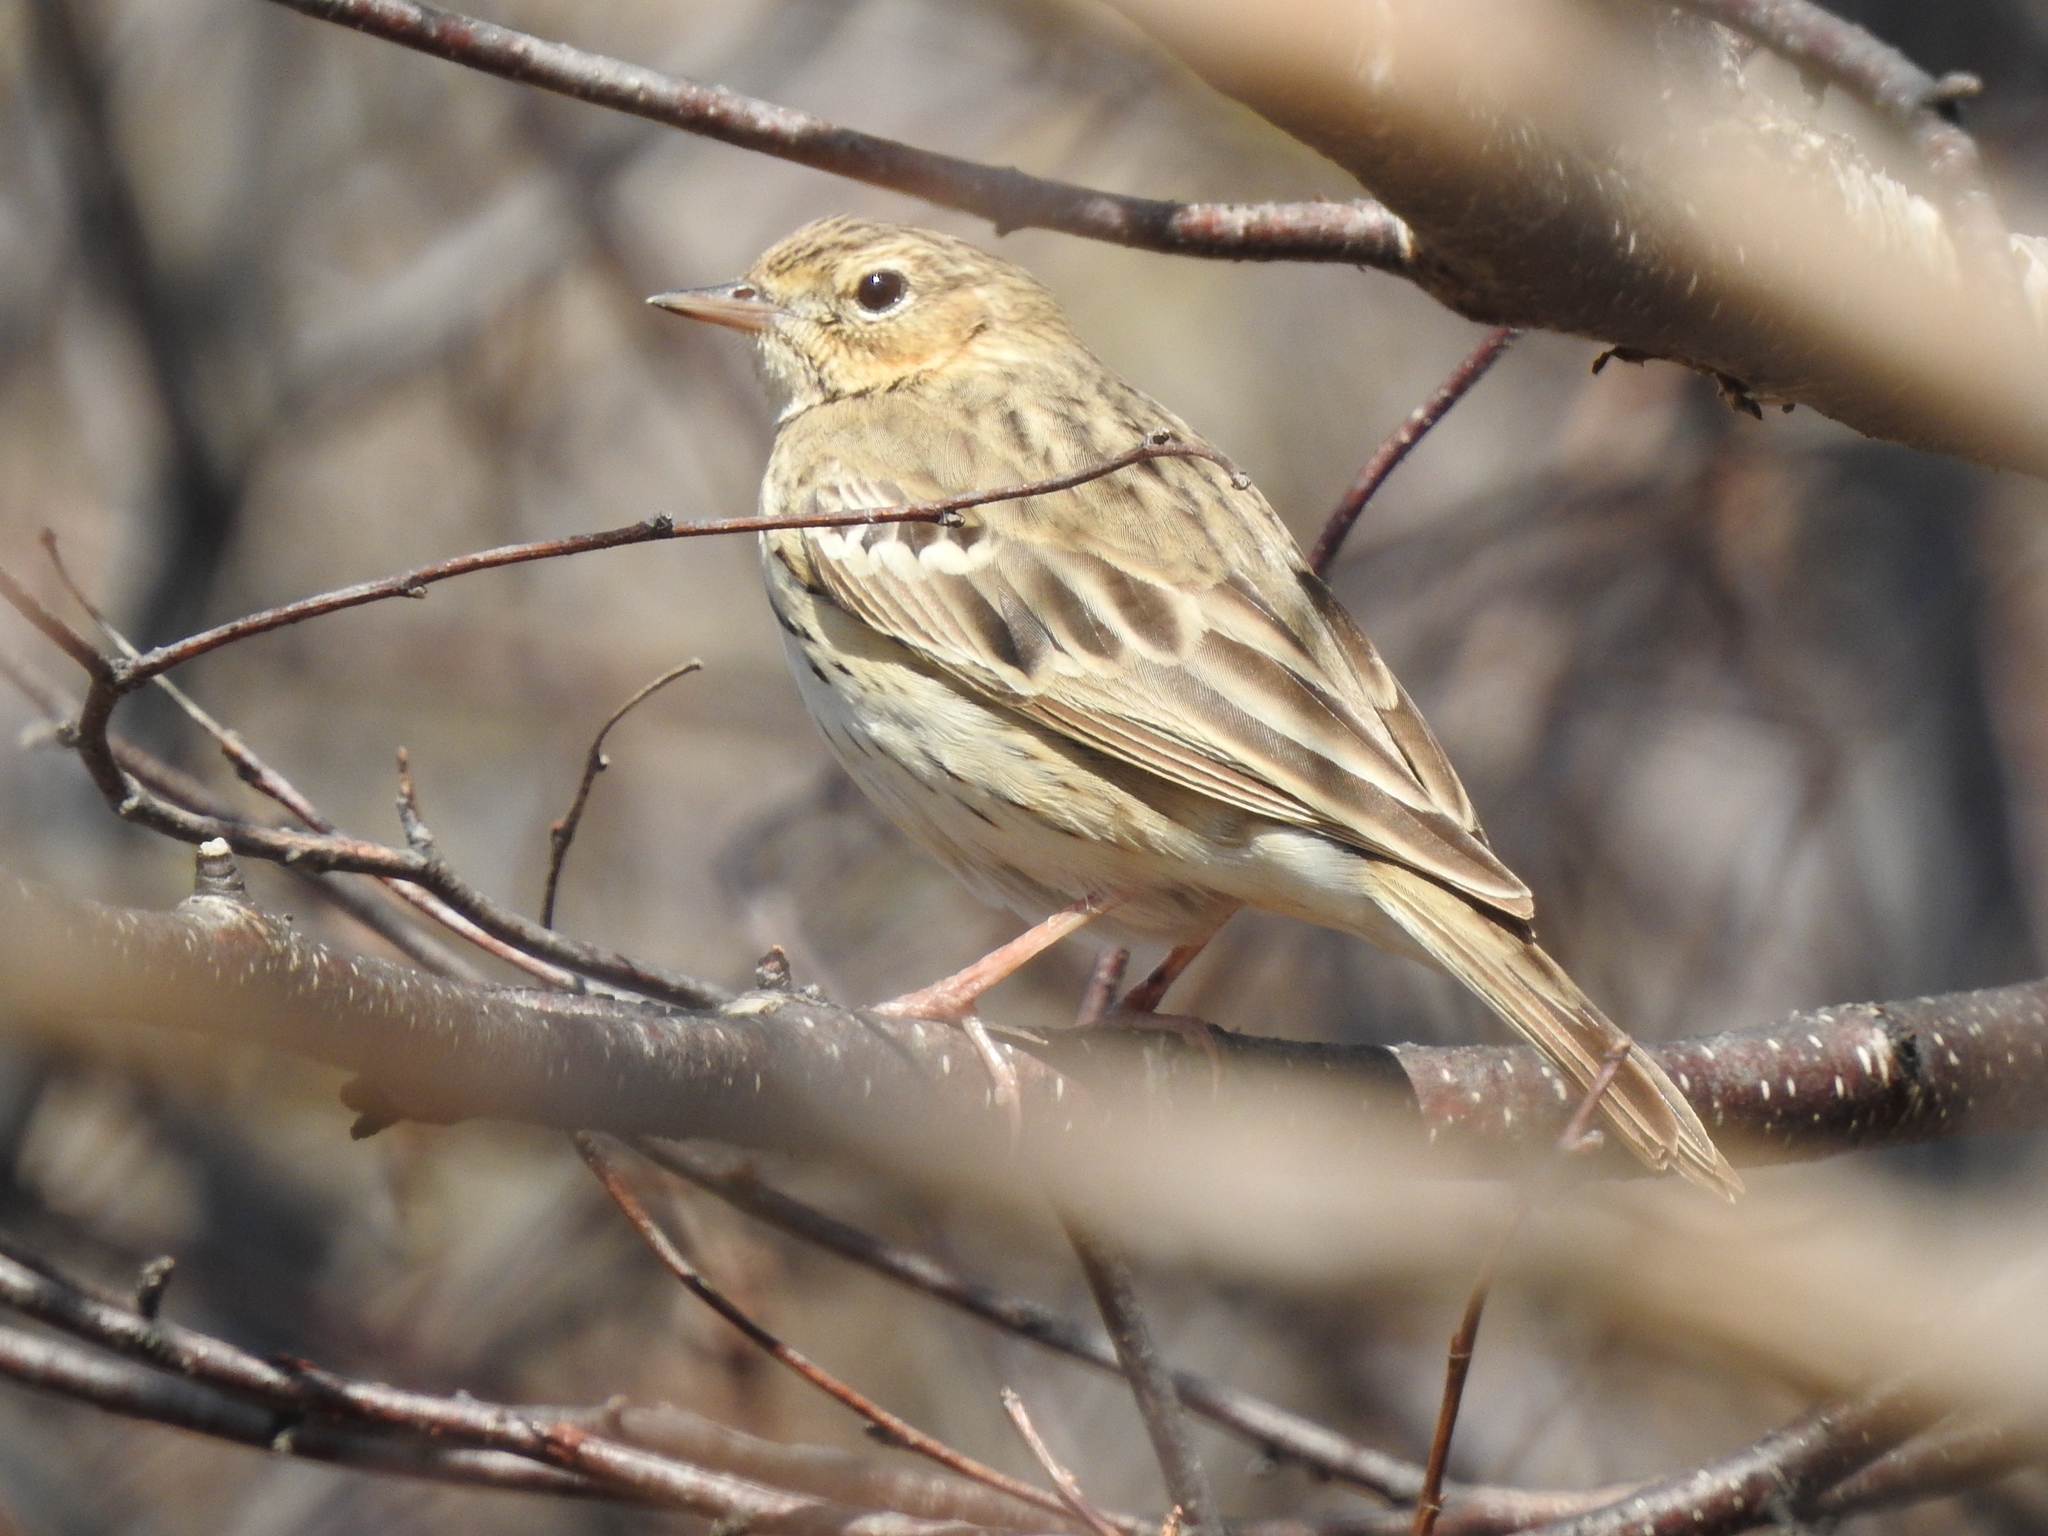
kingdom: Animalia
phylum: Chordata
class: Aves
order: Passeriformes
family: Motacillidae
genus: Anthus
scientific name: Anthus trivialis
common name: Tree pipit
